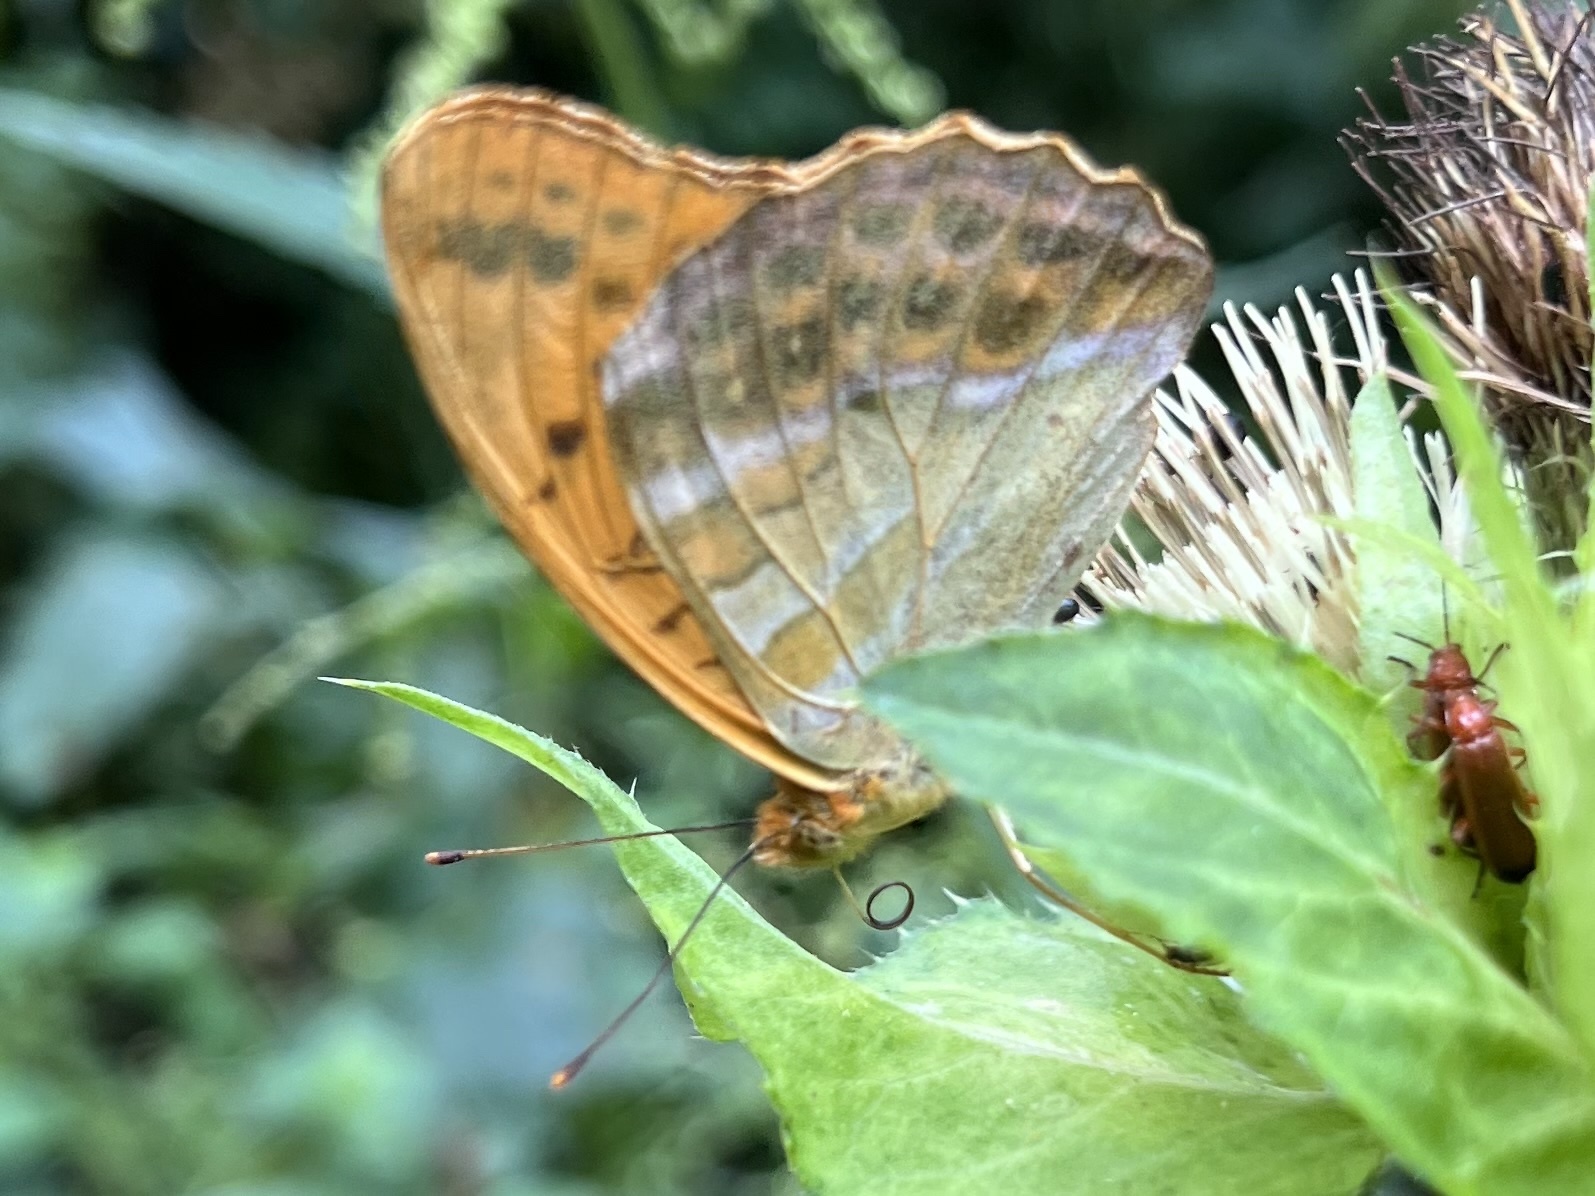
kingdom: Animalia
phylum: Arthropoda
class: Insecta
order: Lepidoptera
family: Nymphalidae
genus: Argynnis
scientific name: Argynnis paphia
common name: Silver-washed fritillary
